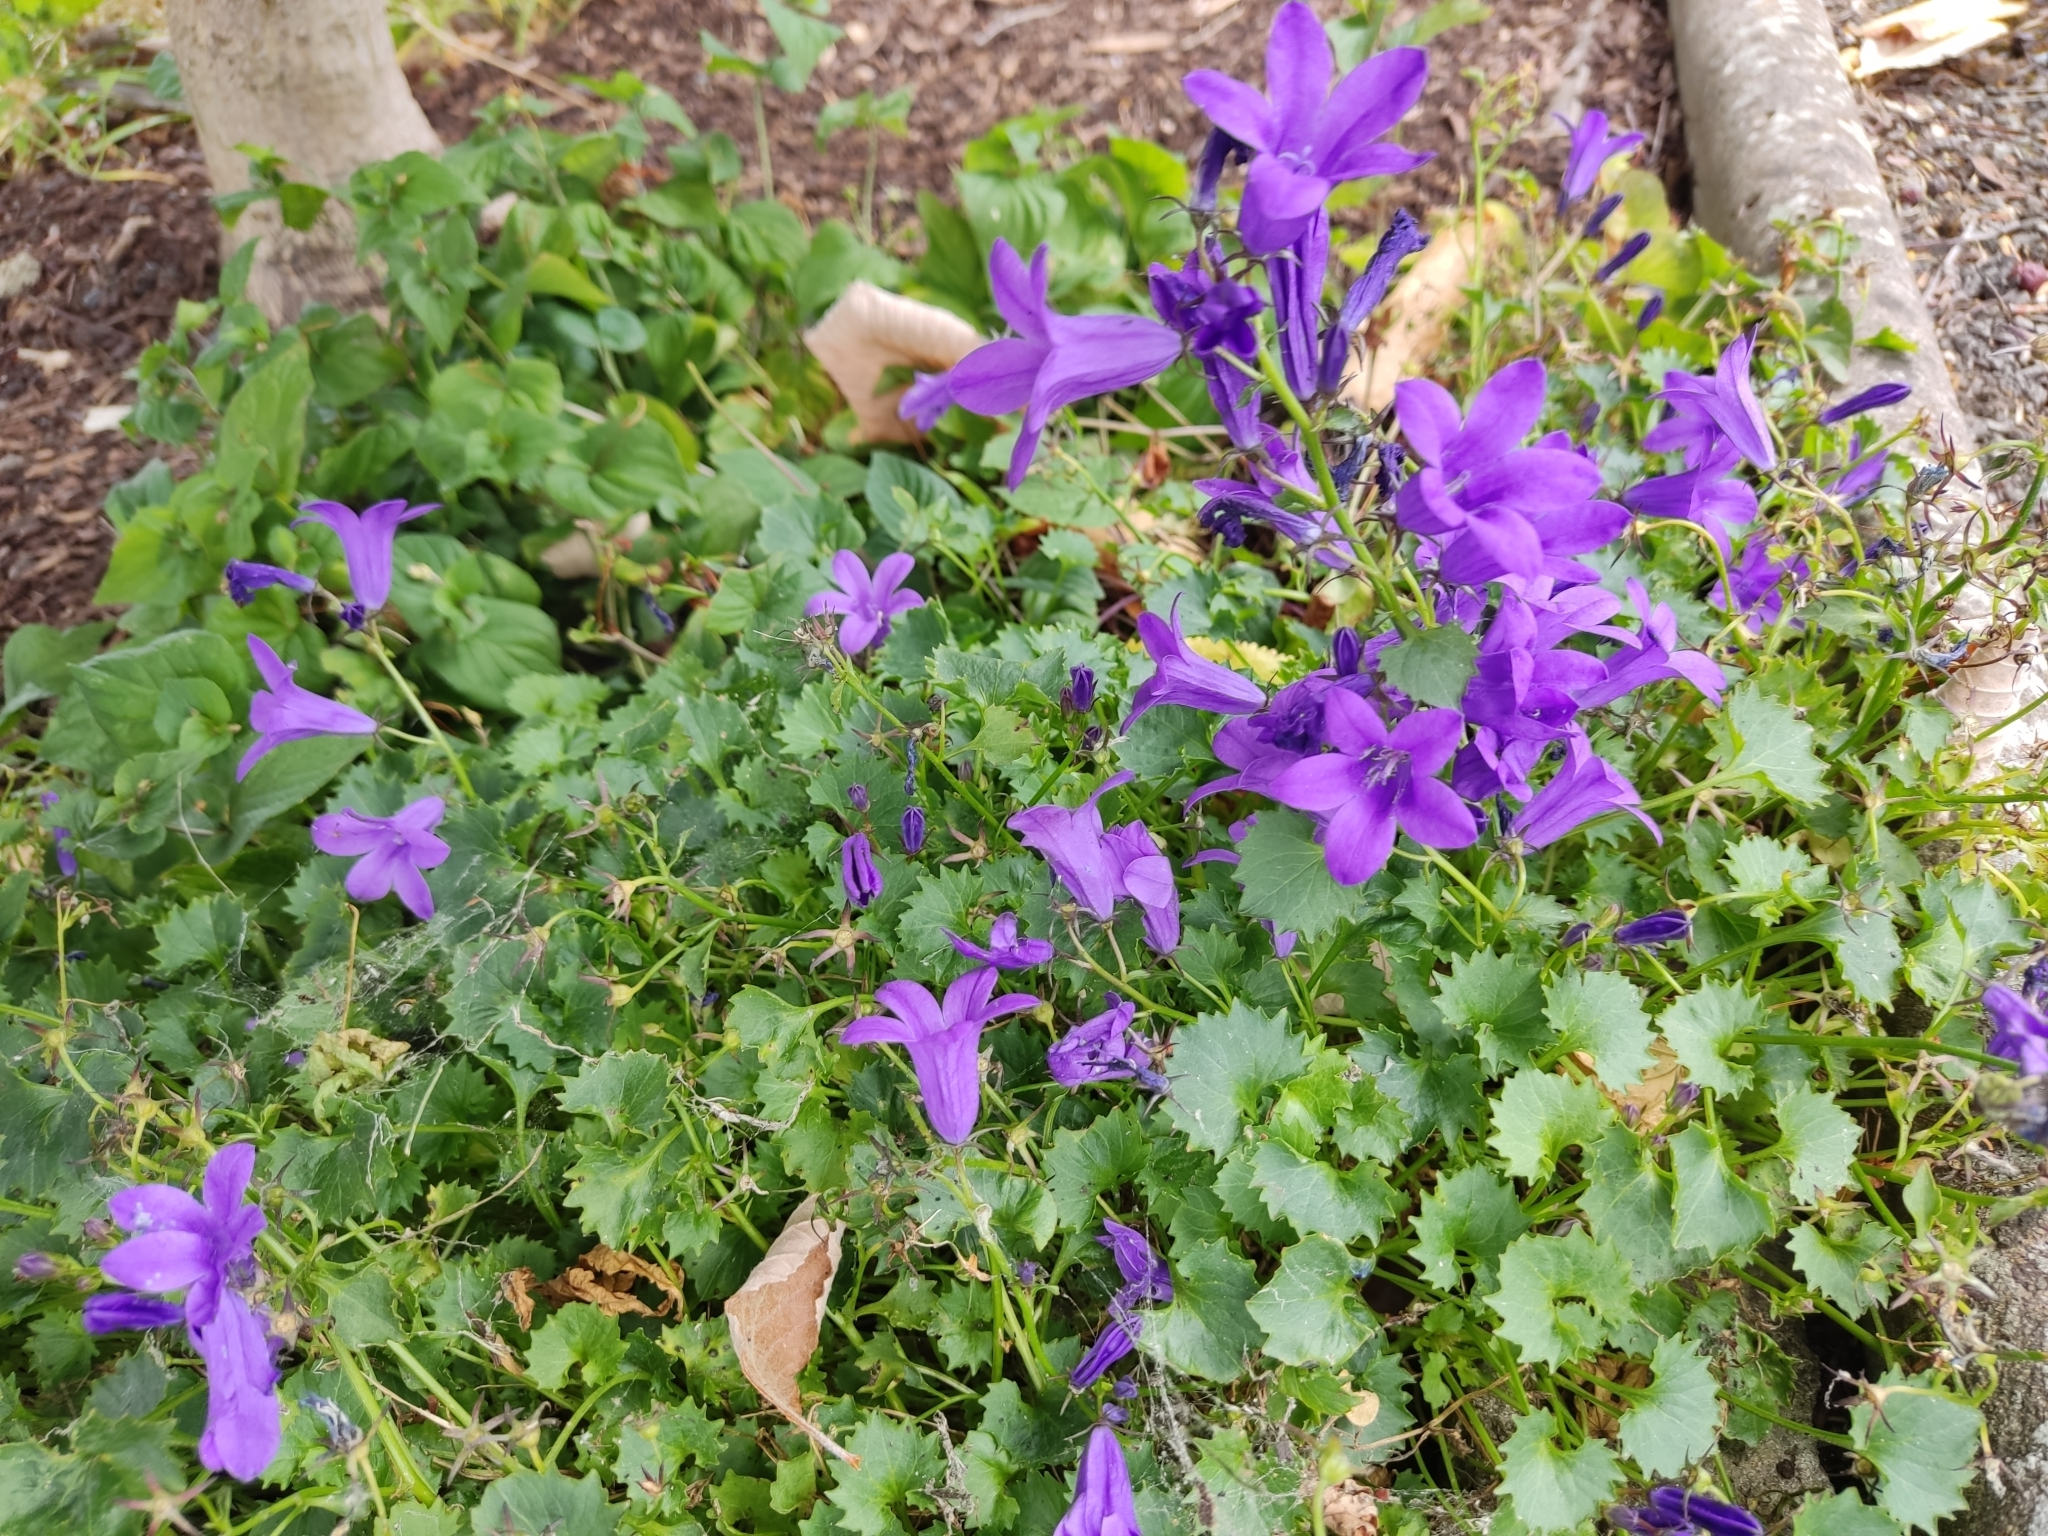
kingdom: Plantae
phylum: Tracheophyta
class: Magnoliopsida
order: Asterales
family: Campanulaceae
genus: Campanula
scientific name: Campanula portenschlagiana
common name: Adria bellflower
